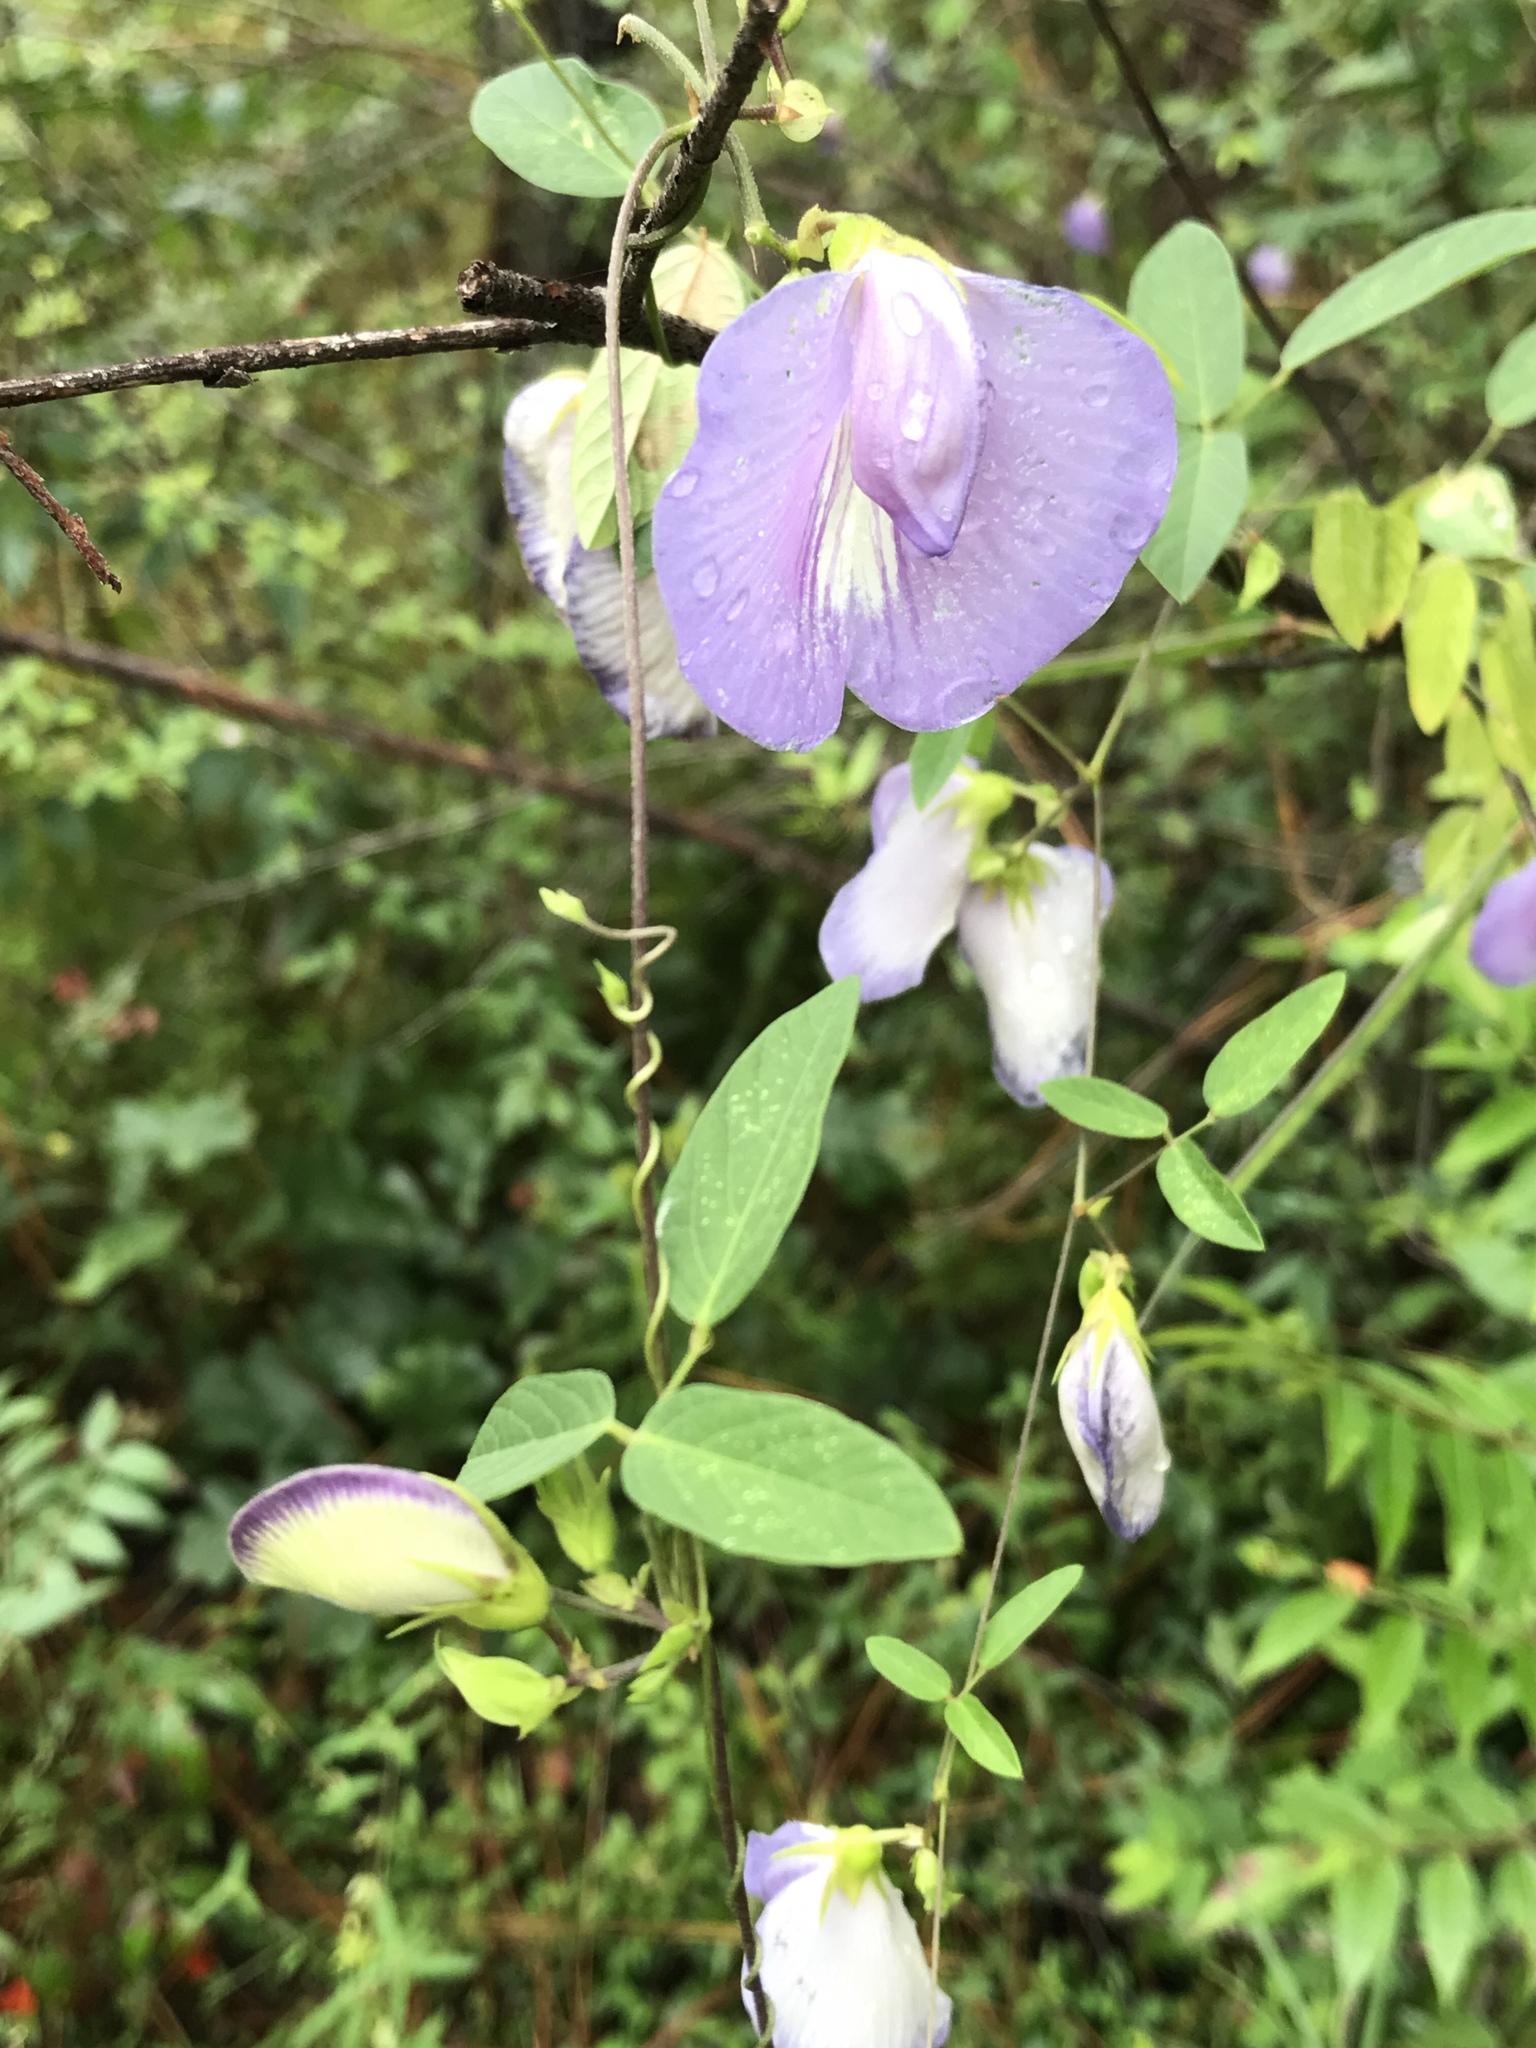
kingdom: Plantae
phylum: Tracheophyta
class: Magnoliopsida
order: Fabales
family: Fabaceae
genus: Centrosema
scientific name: Centrosema virginianum
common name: Butterfly-pea
